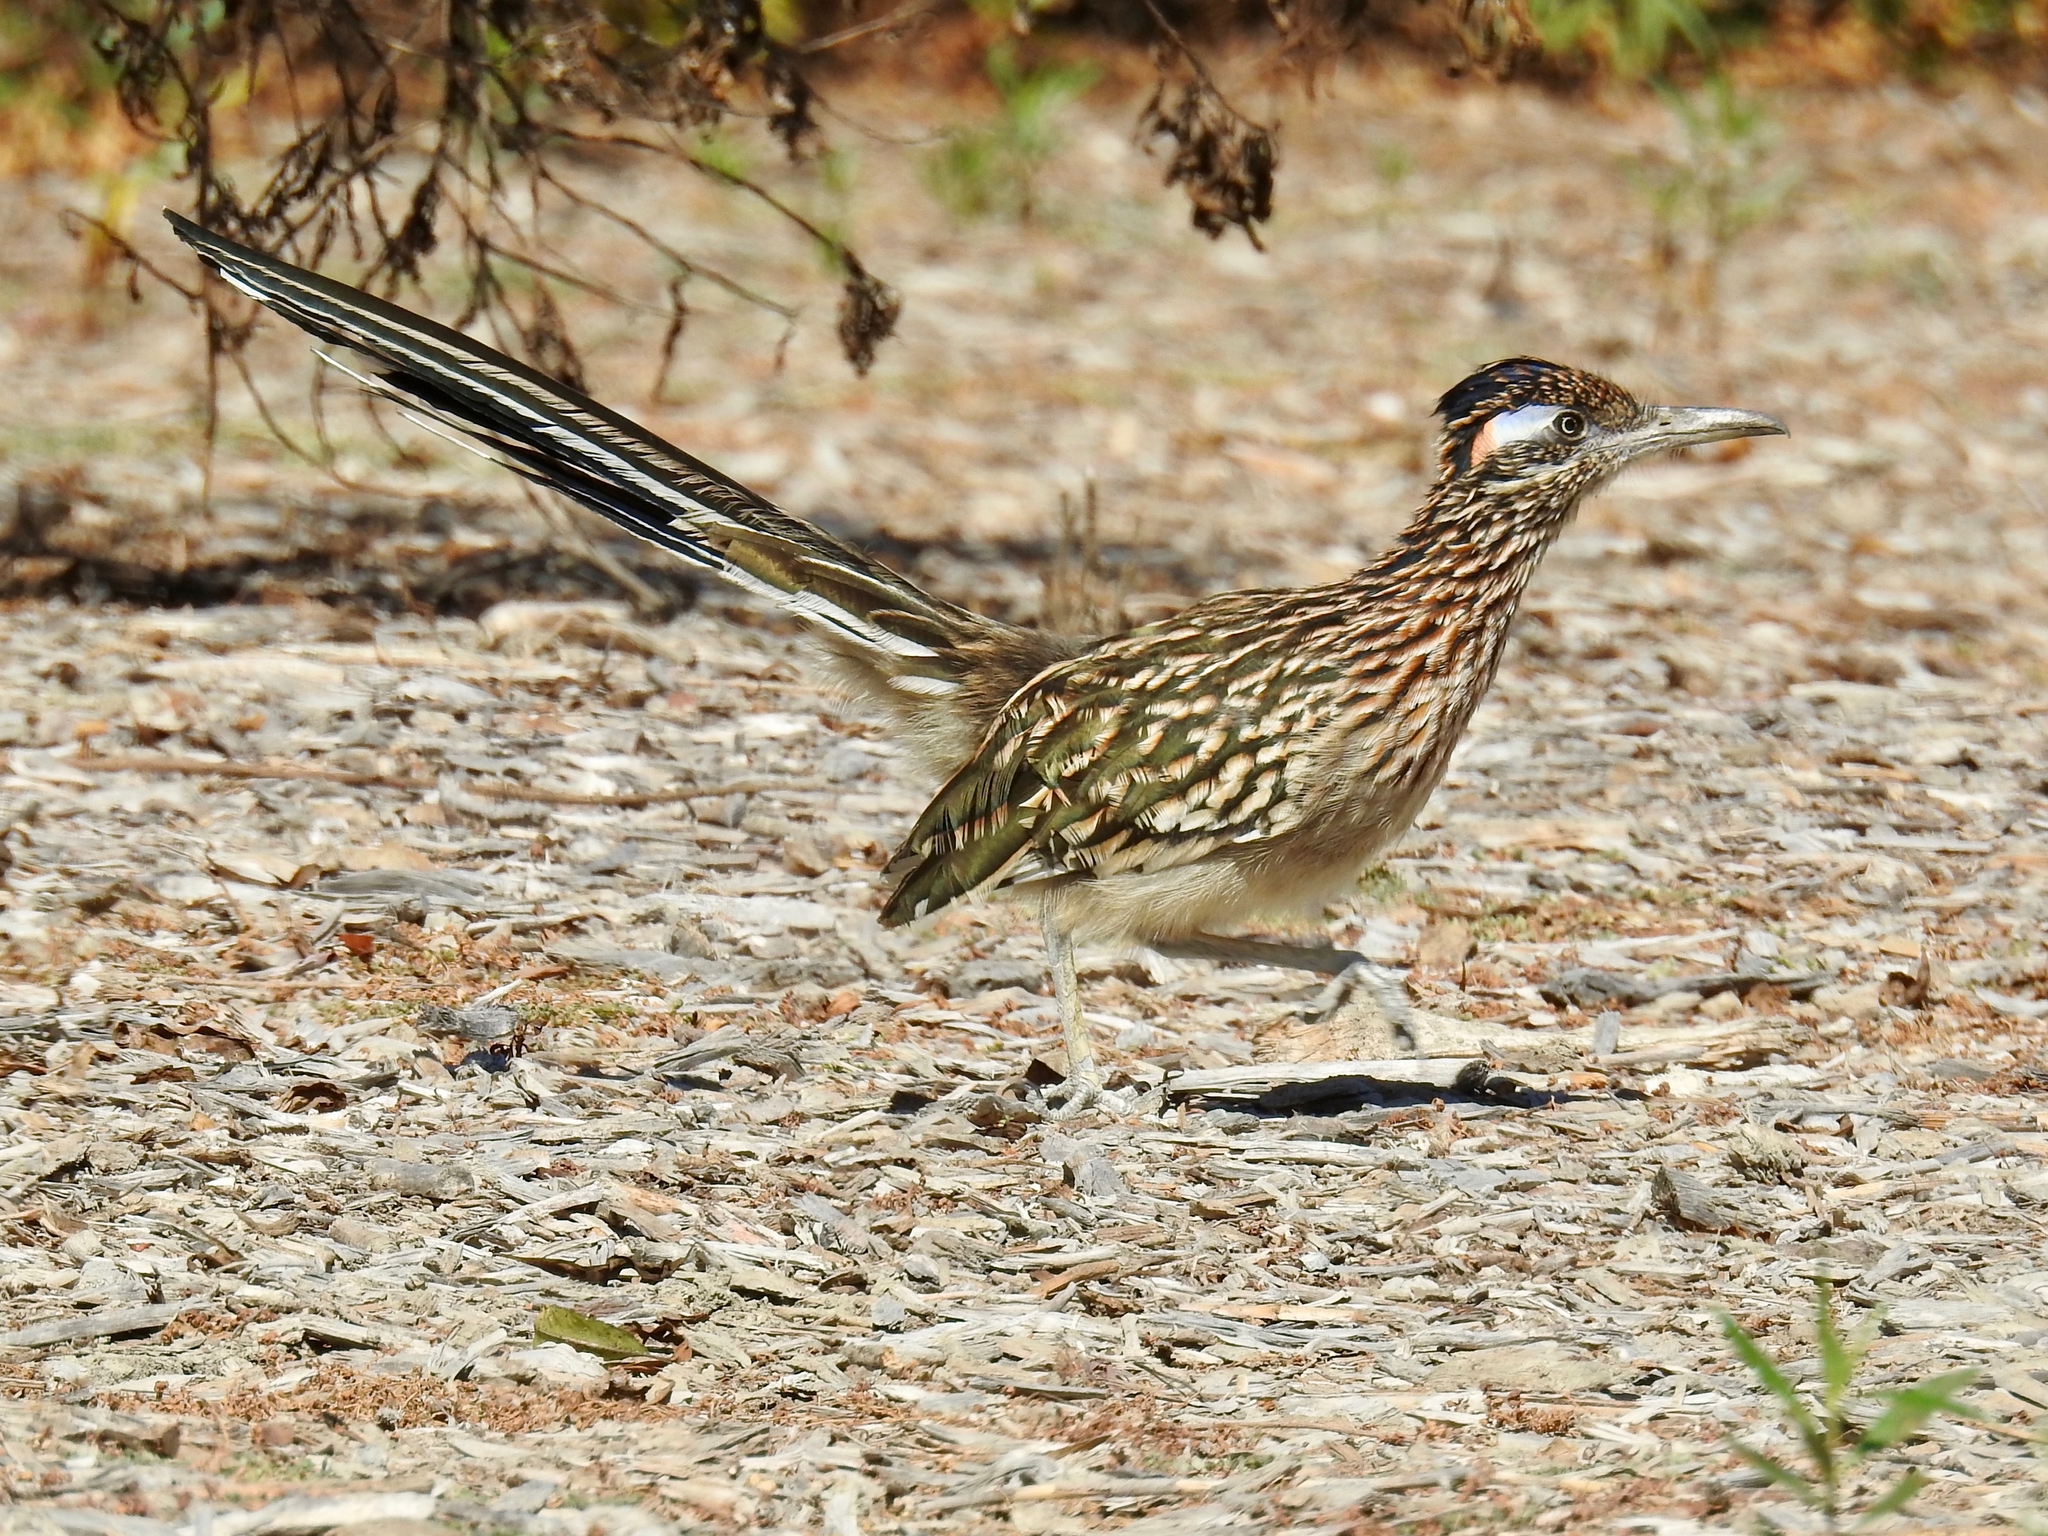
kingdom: Animalia
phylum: Chordata
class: Aves
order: Cuculiformes
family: Cuculidae
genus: Geococcyx
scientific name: Geococcyx californianus
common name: Greater roadrunner
